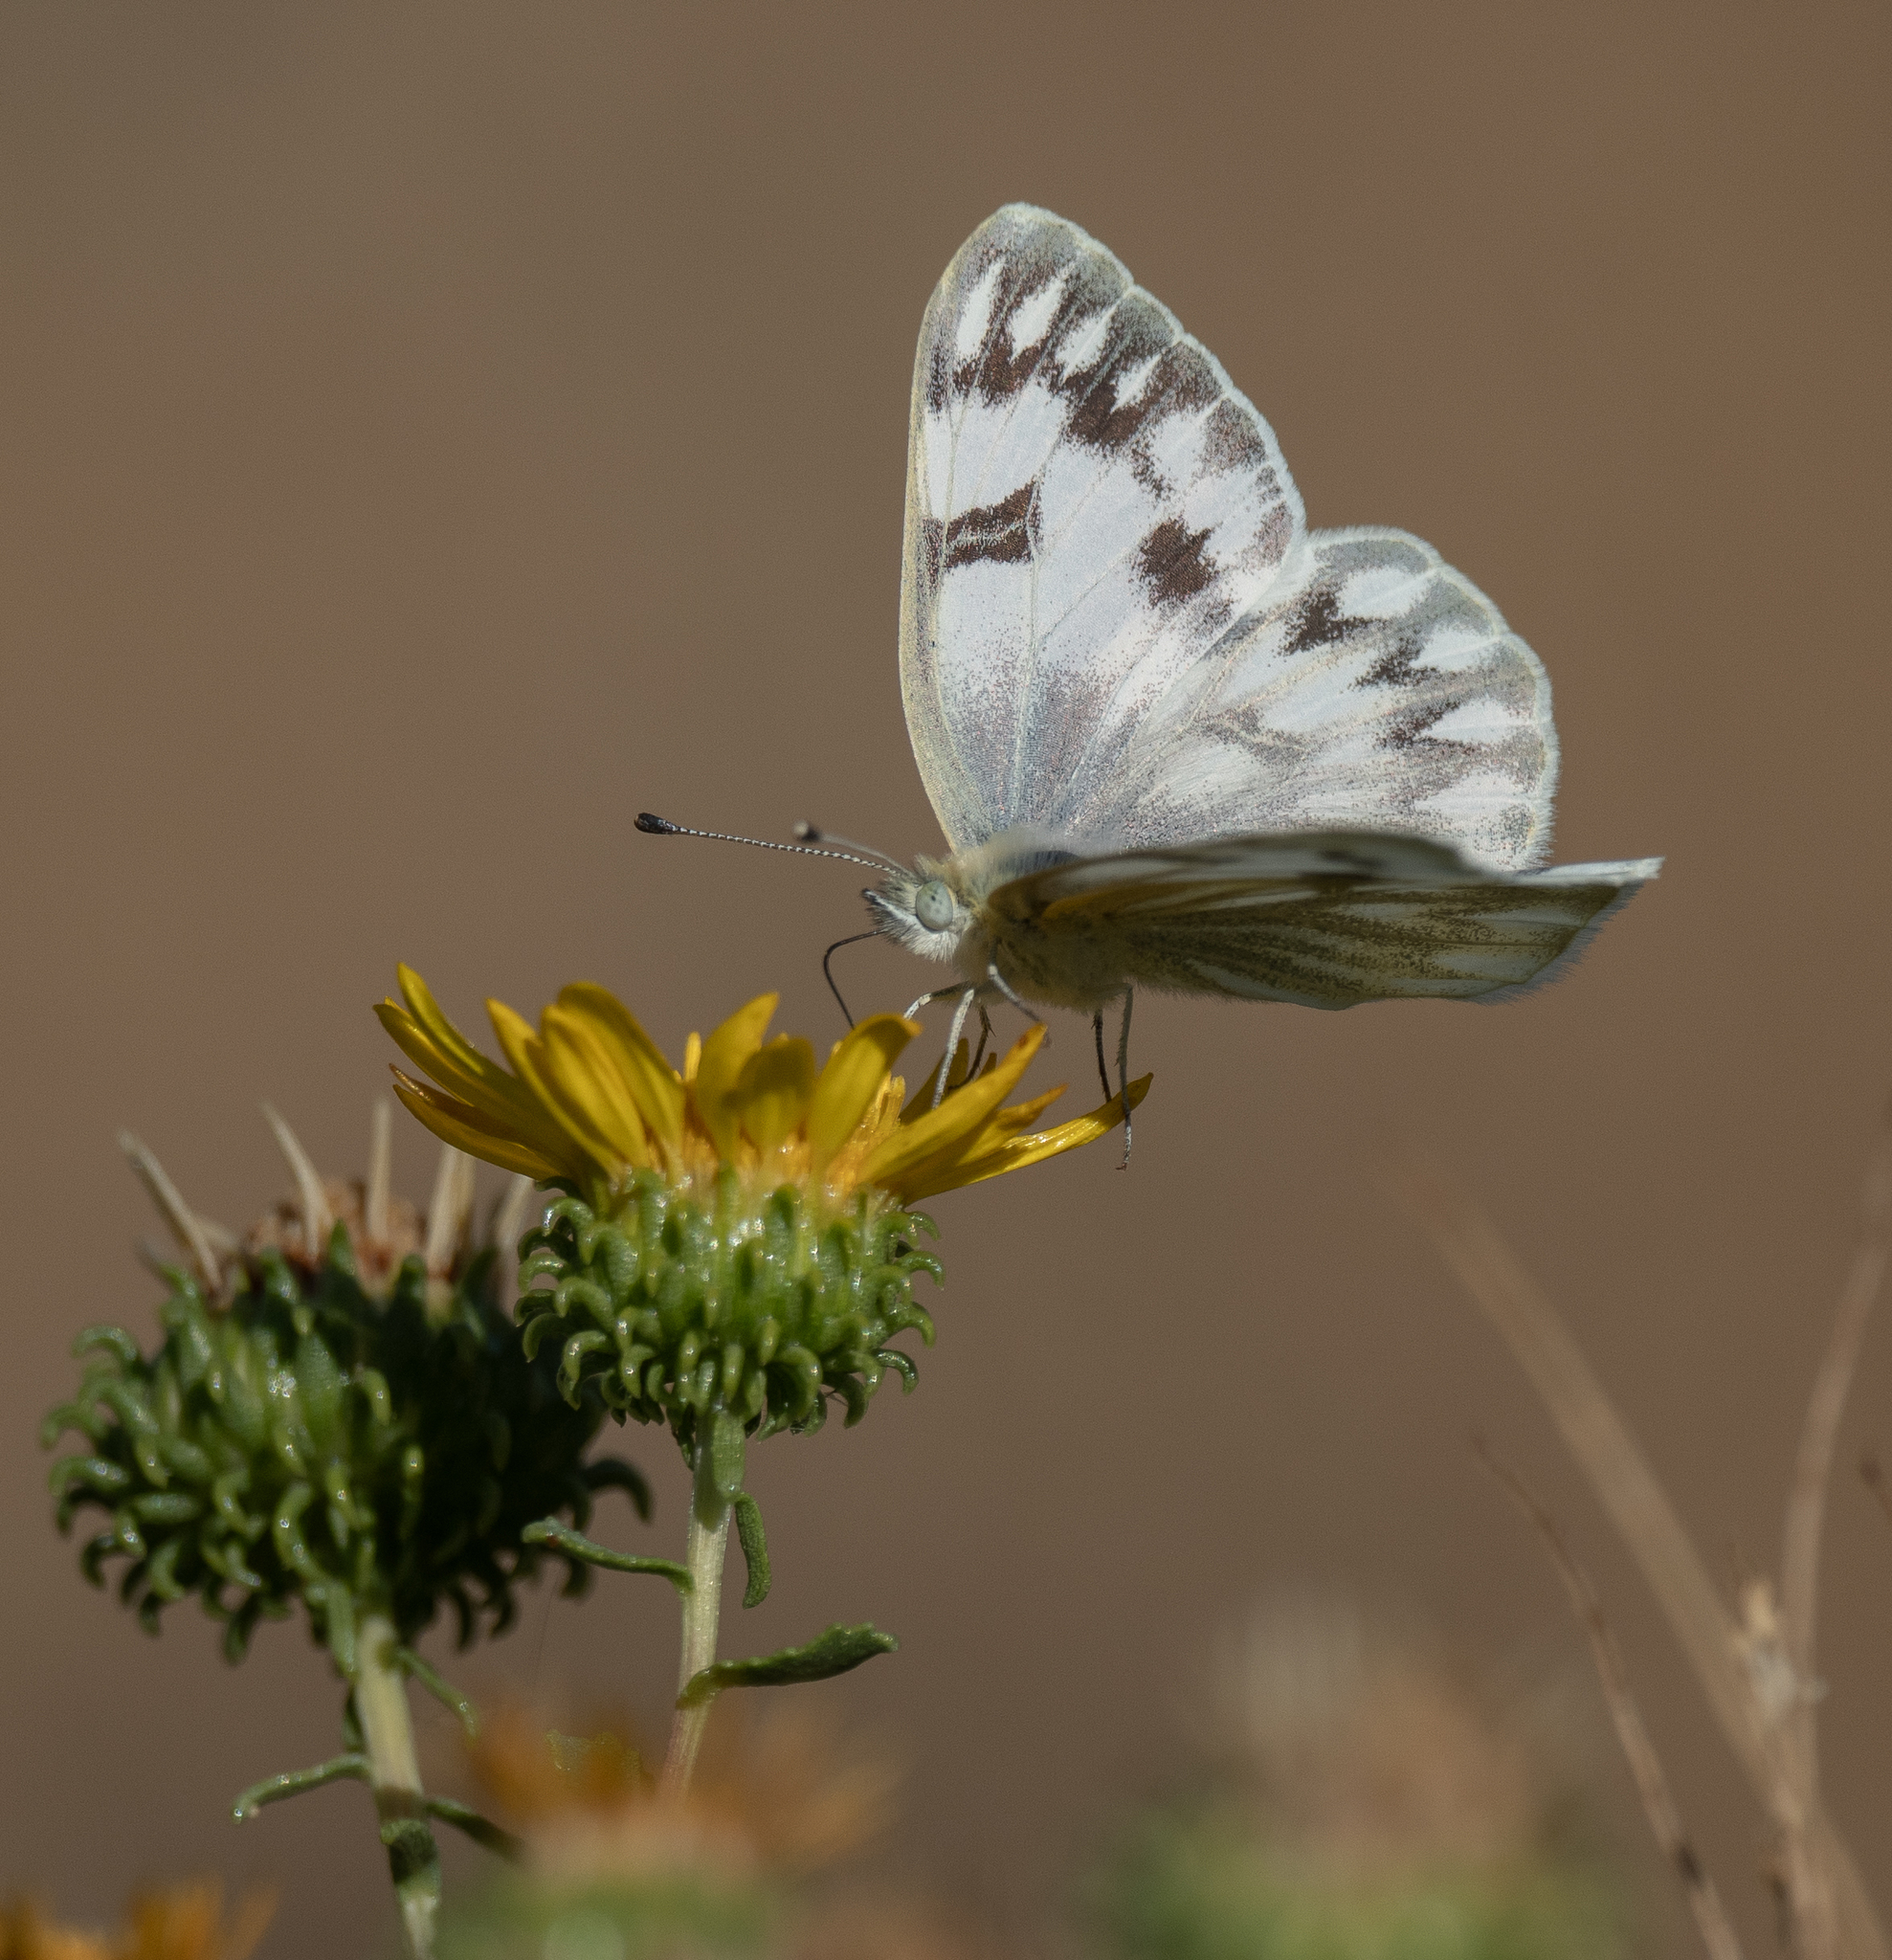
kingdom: Animalia
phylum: Arthropoda
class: Insecta
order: Lepidoptera
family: Pieridae
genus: Pontia
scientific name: Pontia occidentalis
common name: Western white
